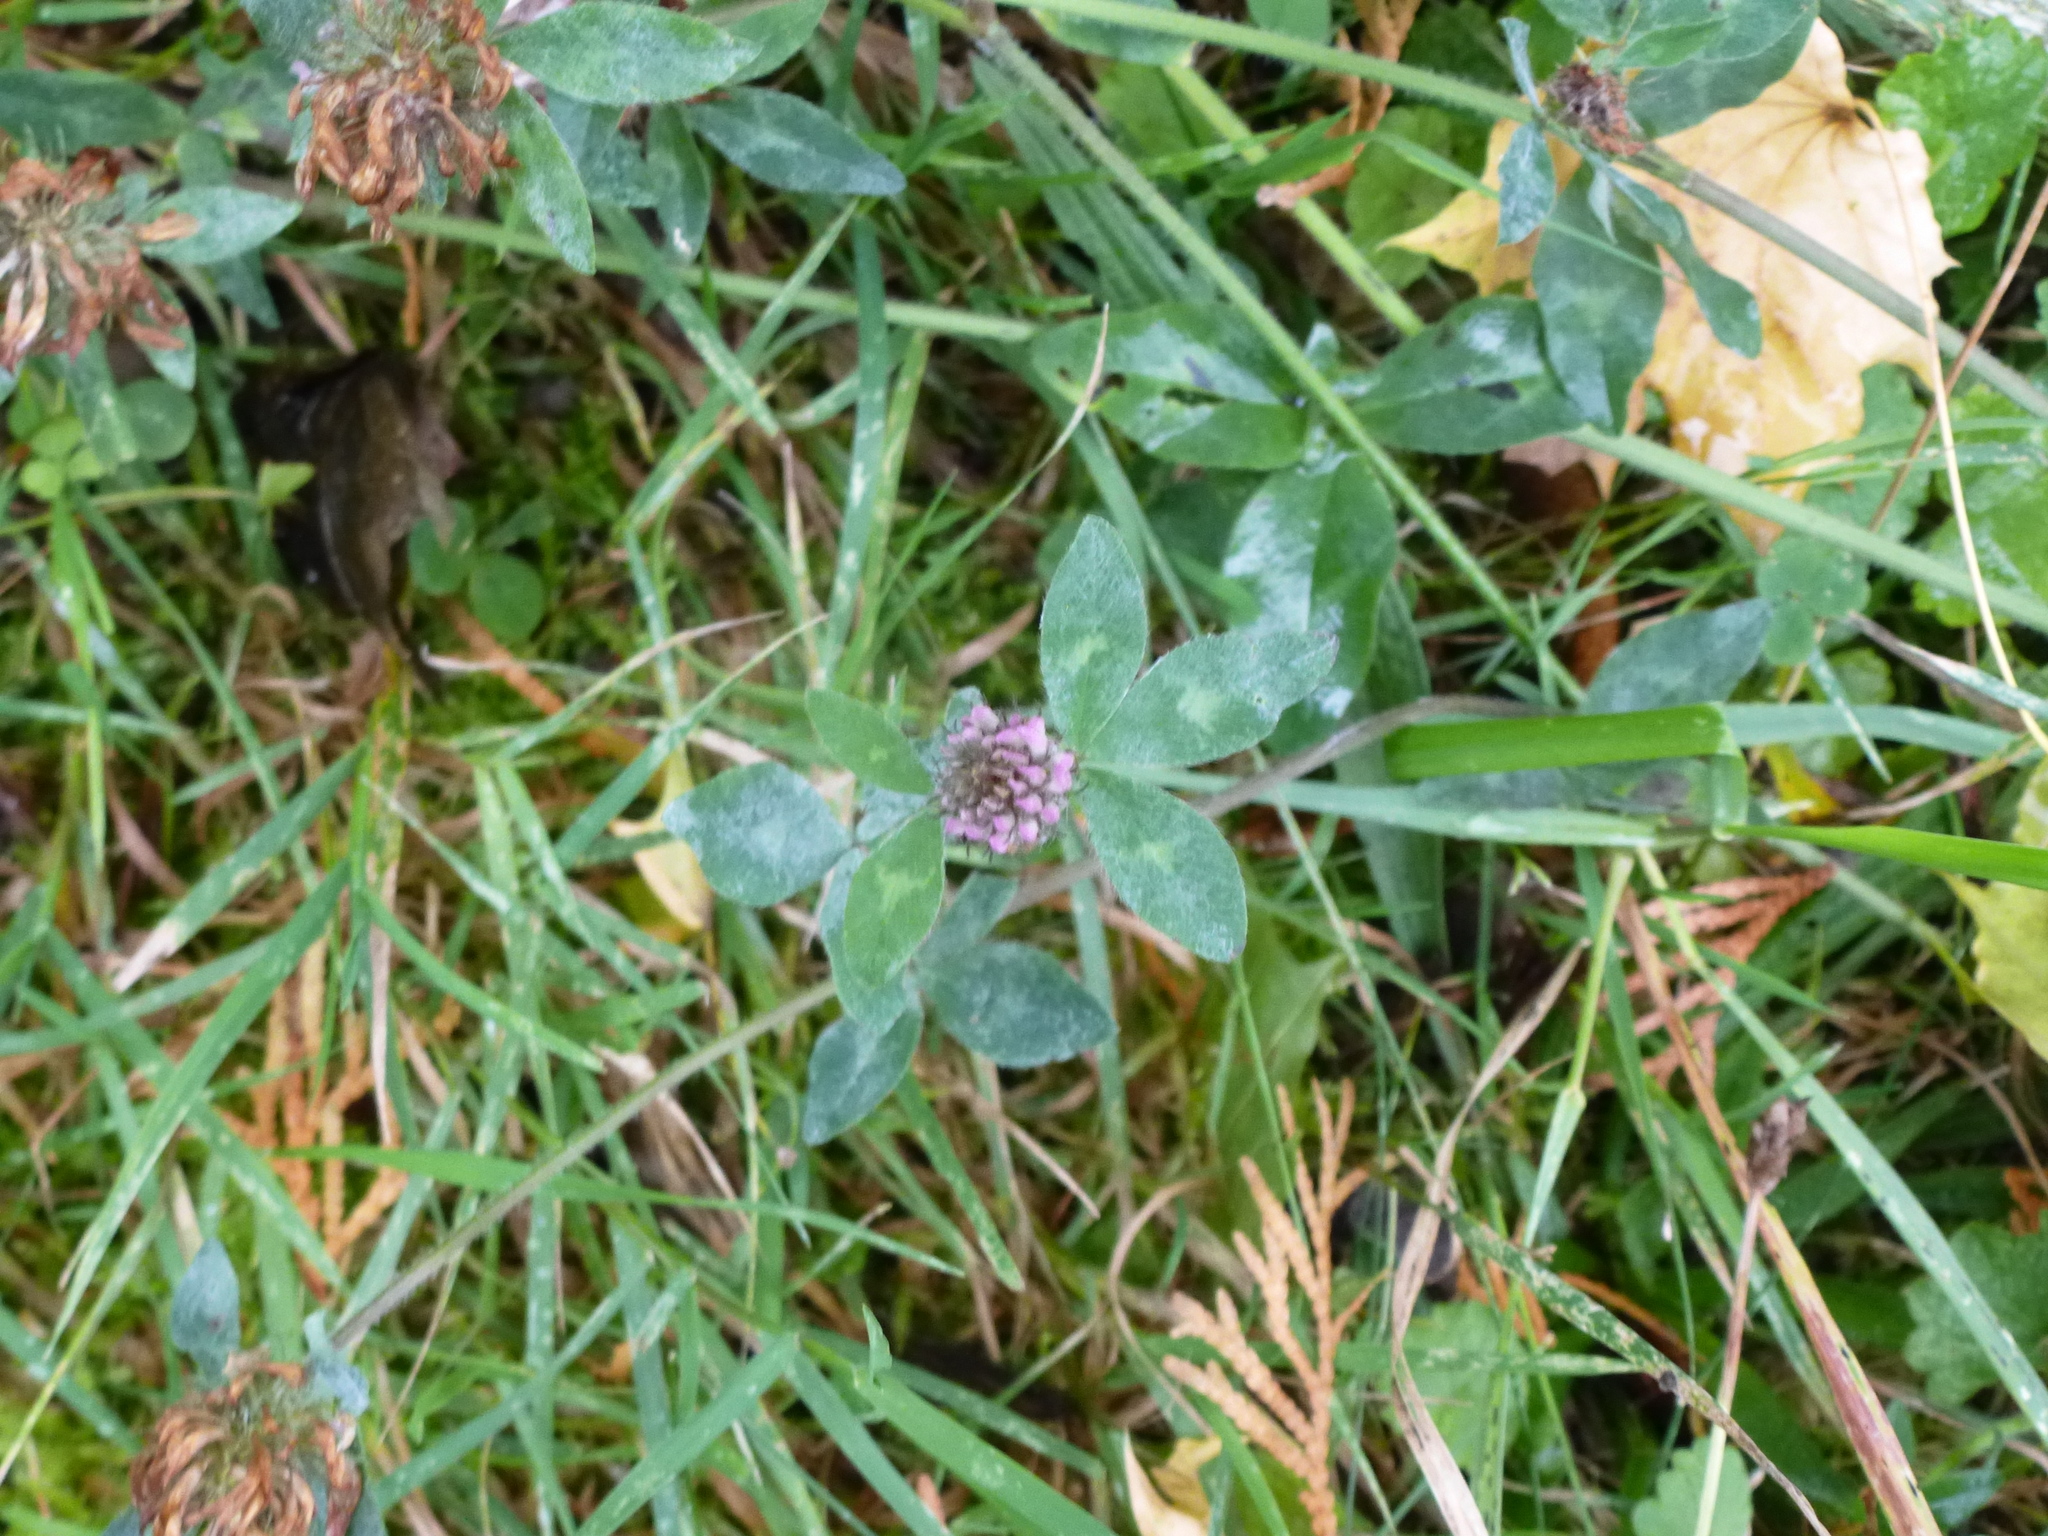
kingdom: Plantae
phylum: Tracheophyta
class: Magnoliopsida
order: Fabales
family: Fabaceae
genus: Trifolium
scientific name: Trifolium pratense
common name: Red clover
